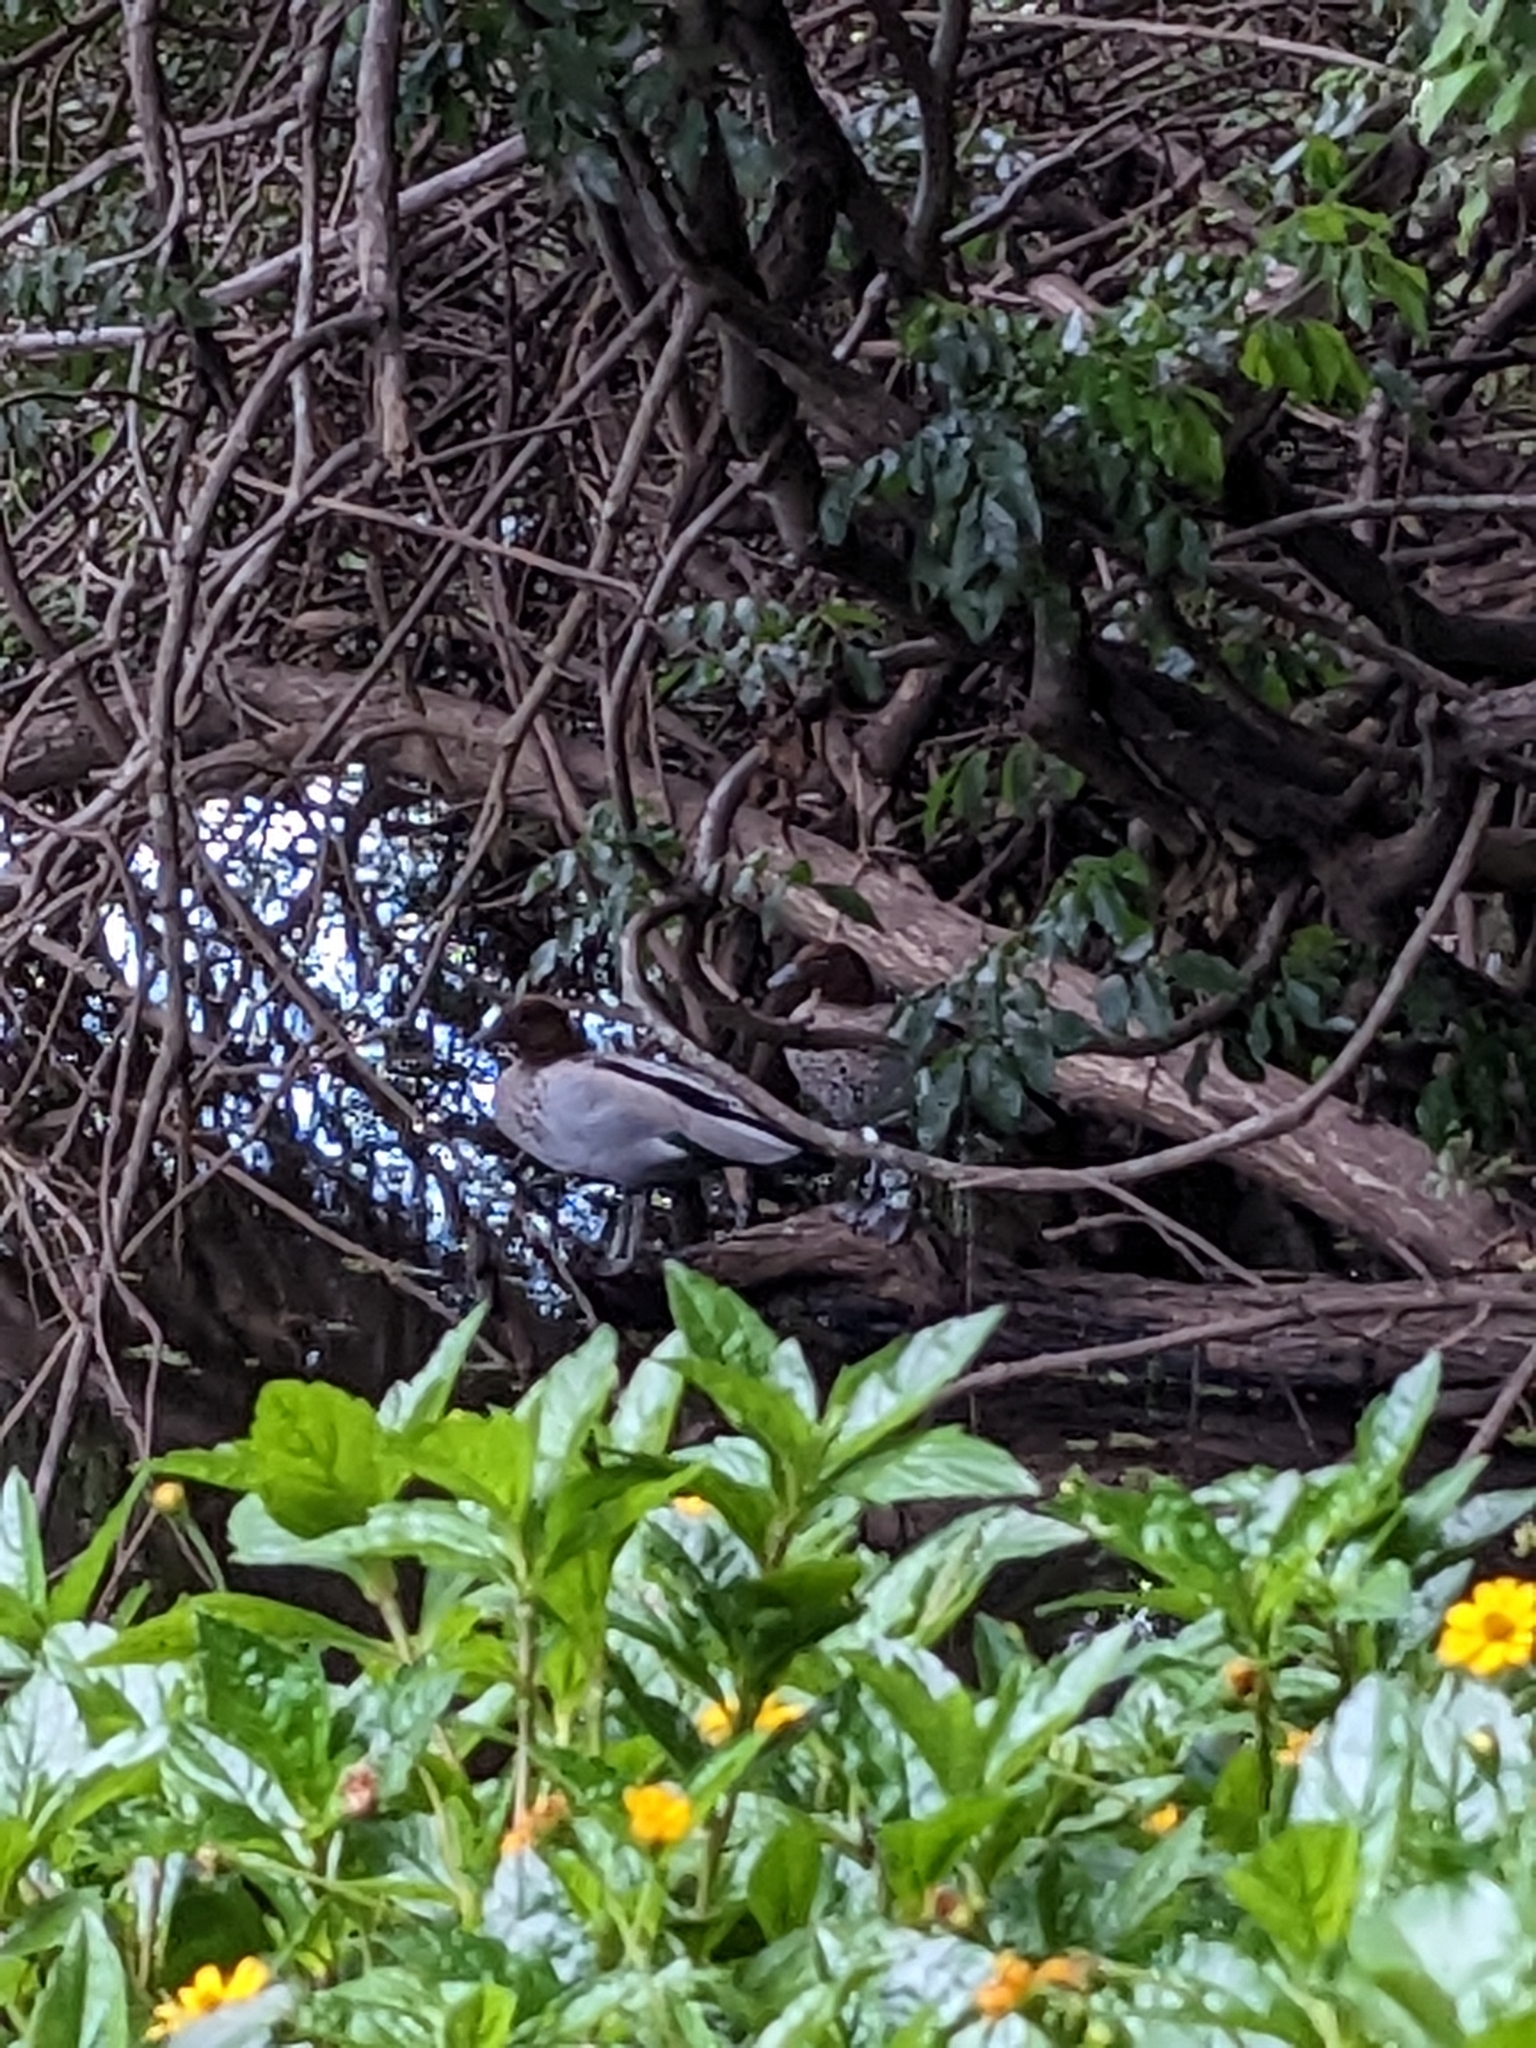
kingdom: Animalia
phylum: Chordata
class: Aves
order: Anseriformes
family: Anatidae
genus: Chenonetta
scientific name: Chenonetta jubata
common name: Maned duck
